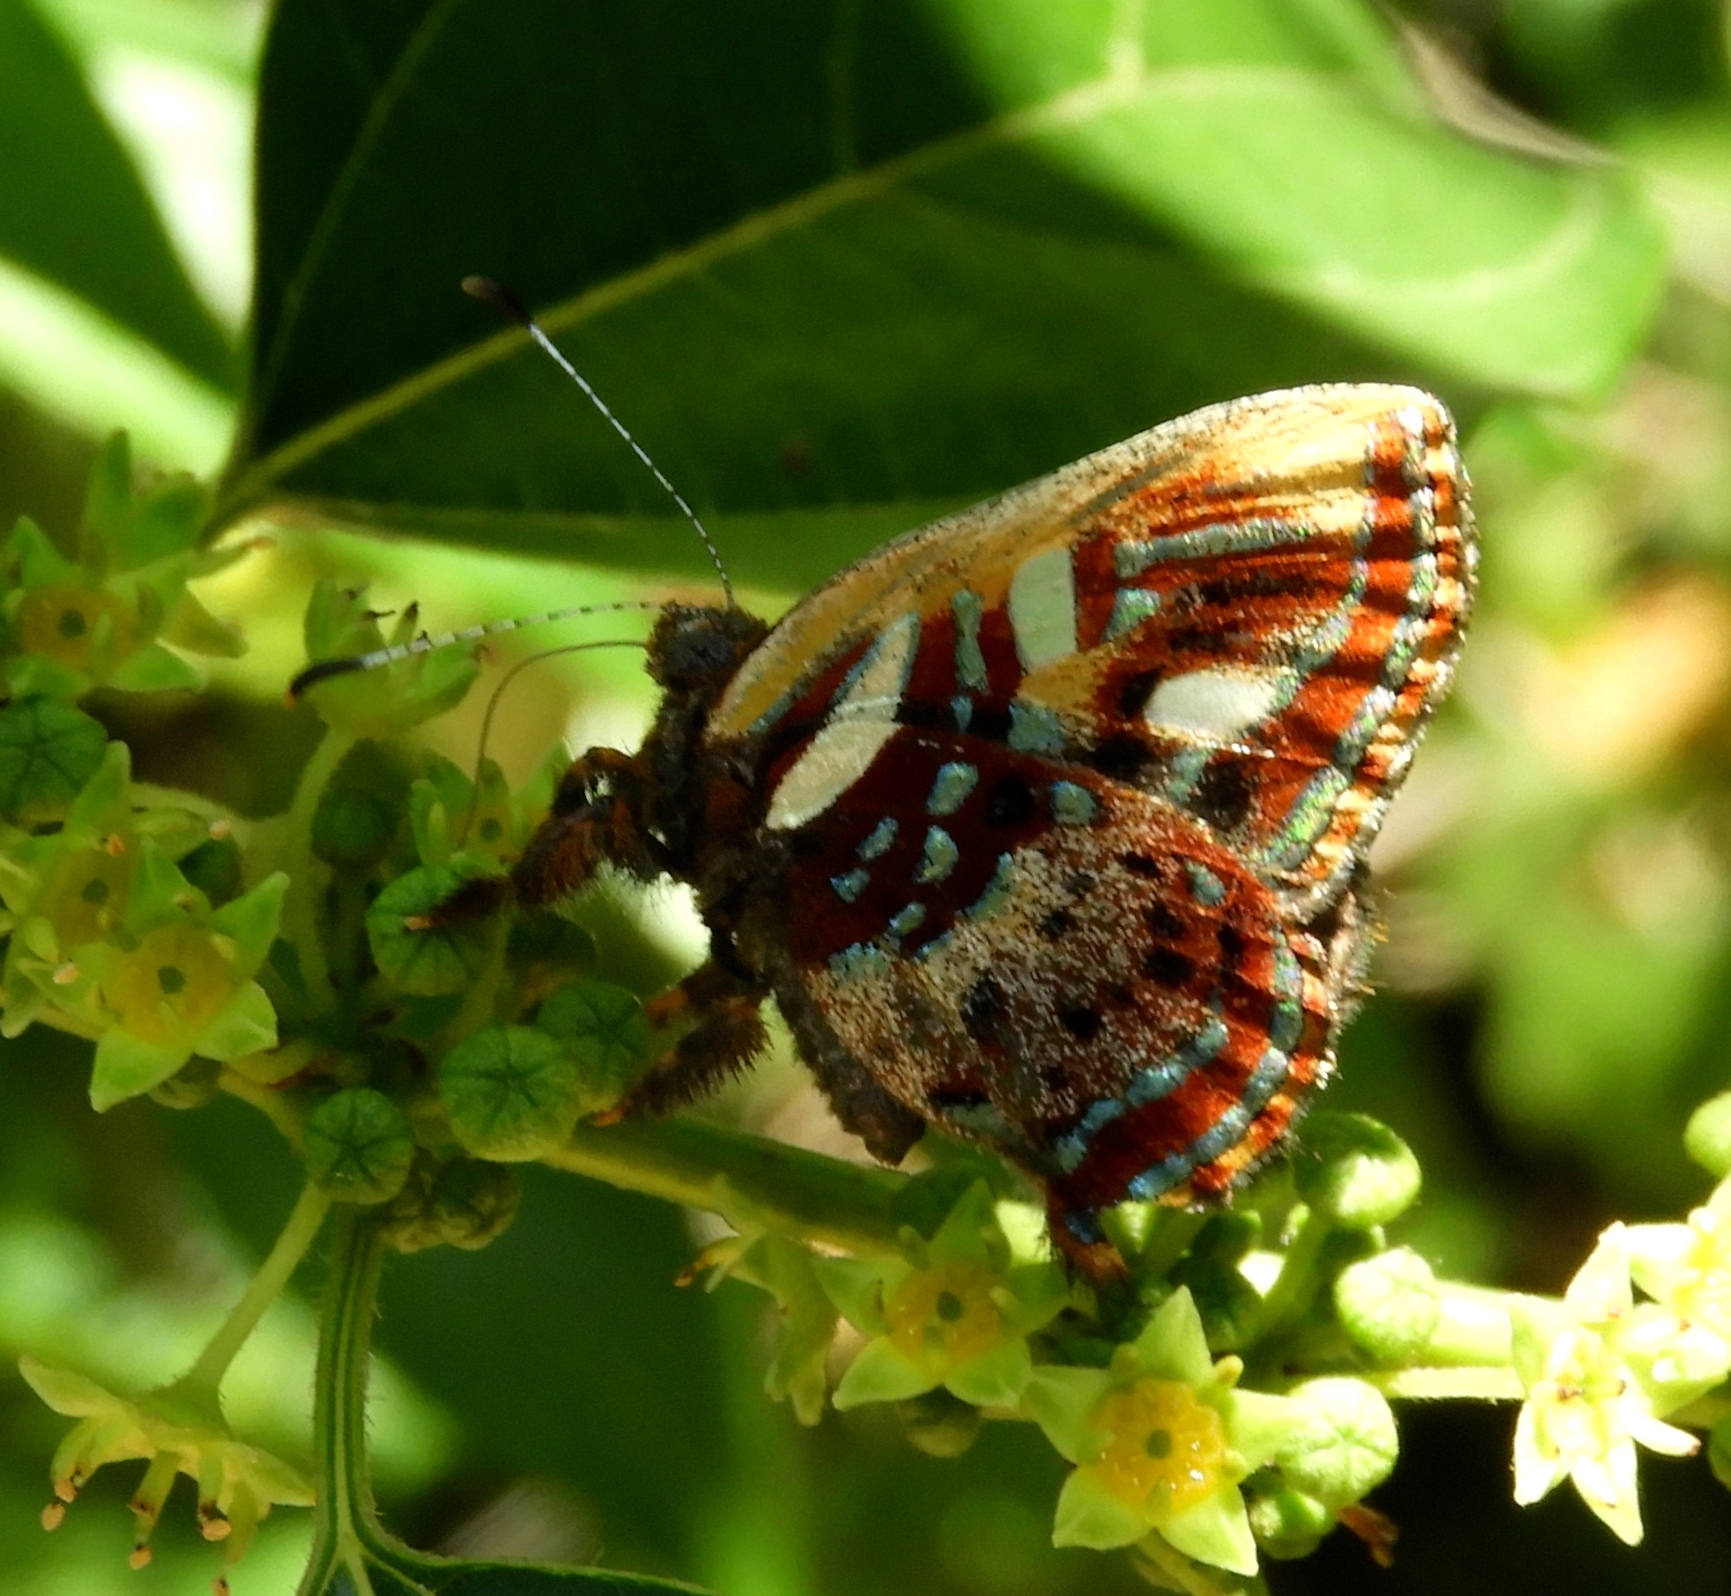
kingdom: Animalia
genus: Anteros
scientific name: Anteros carausius
